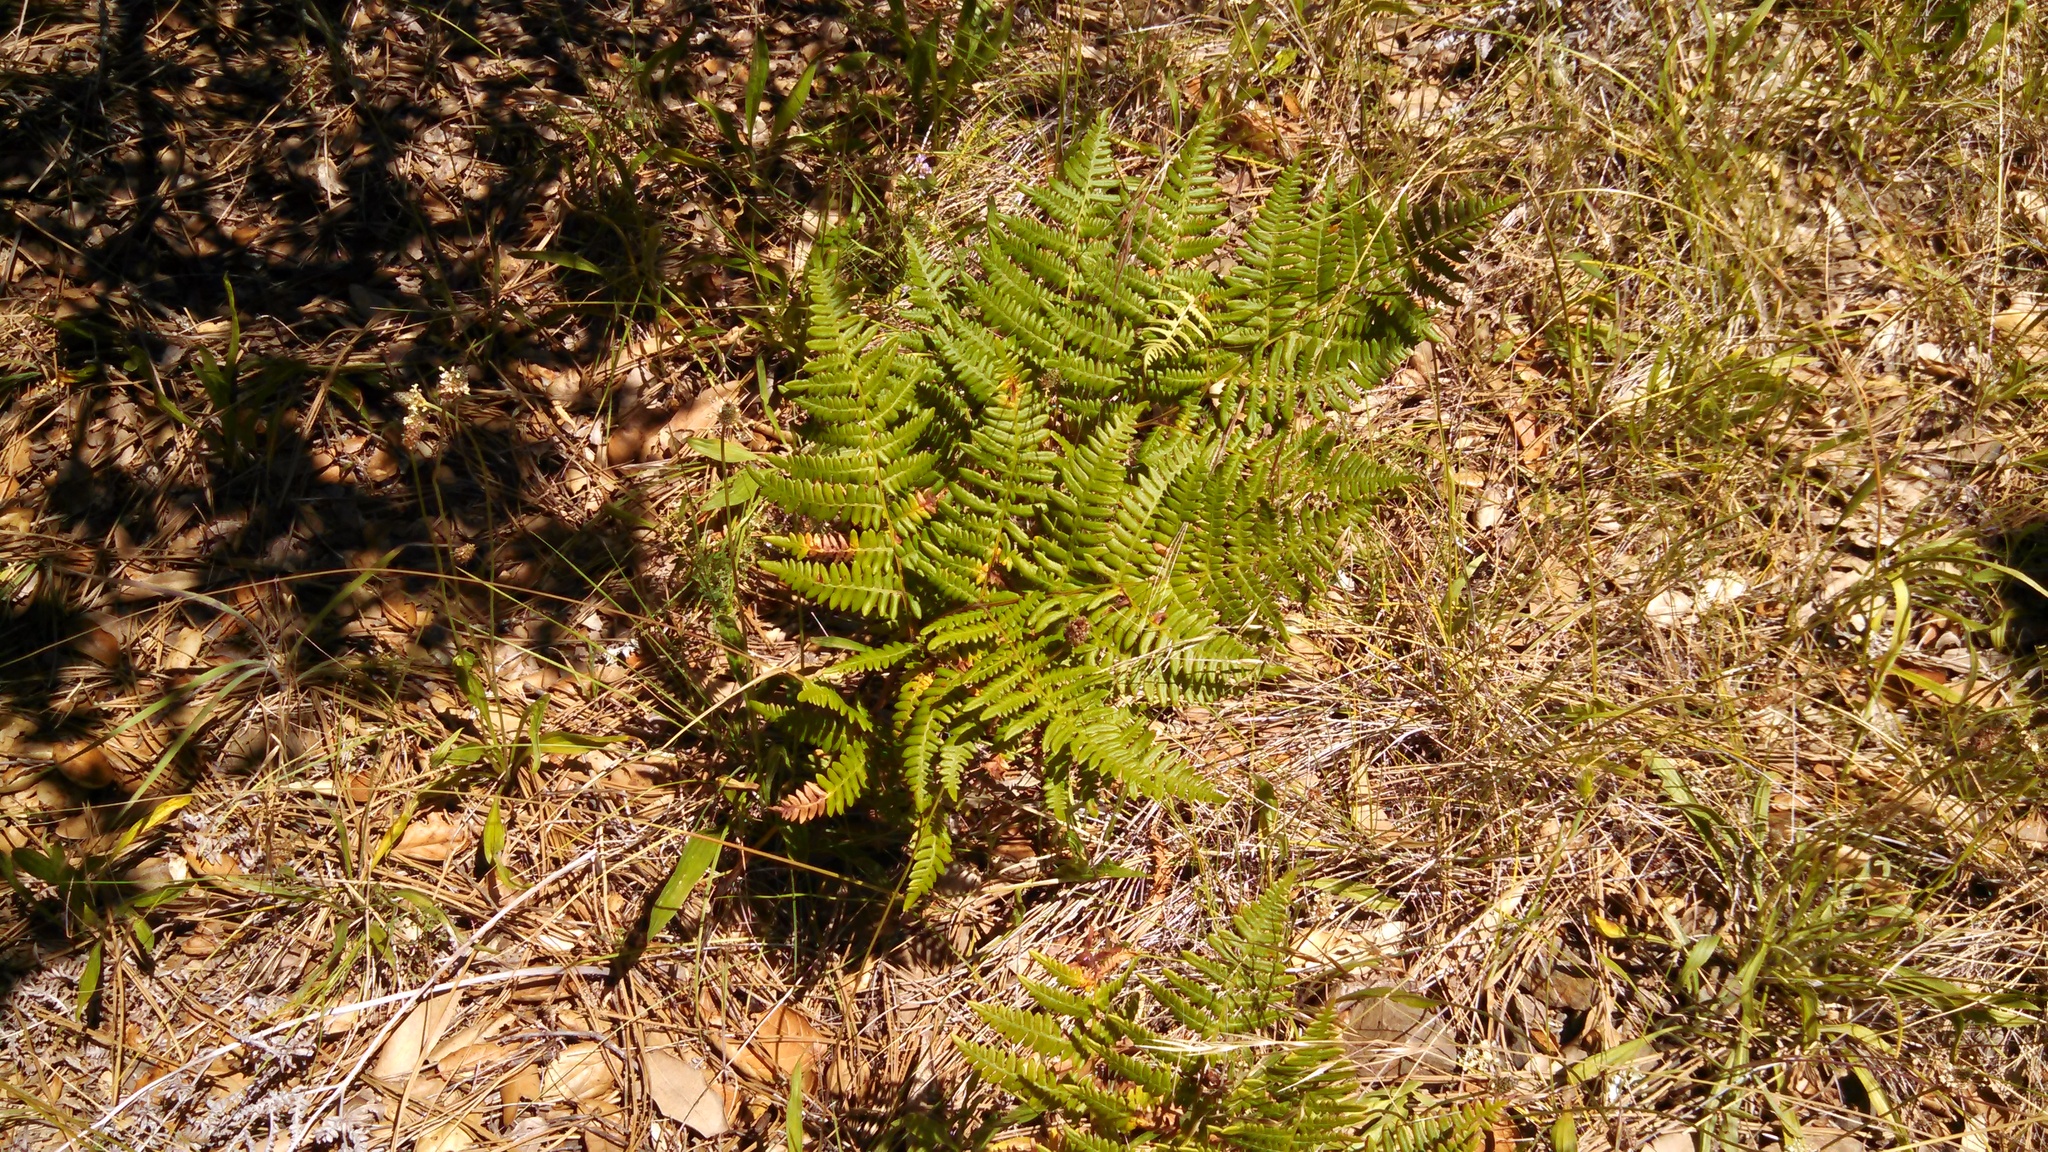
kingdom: Plantae
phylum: Tracheophyta
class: Polypodiopsida
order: Polypodiales
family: Dennstaedtiaceae
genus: Pteridium
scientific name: Pteridium aquilinum
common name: Bracken
